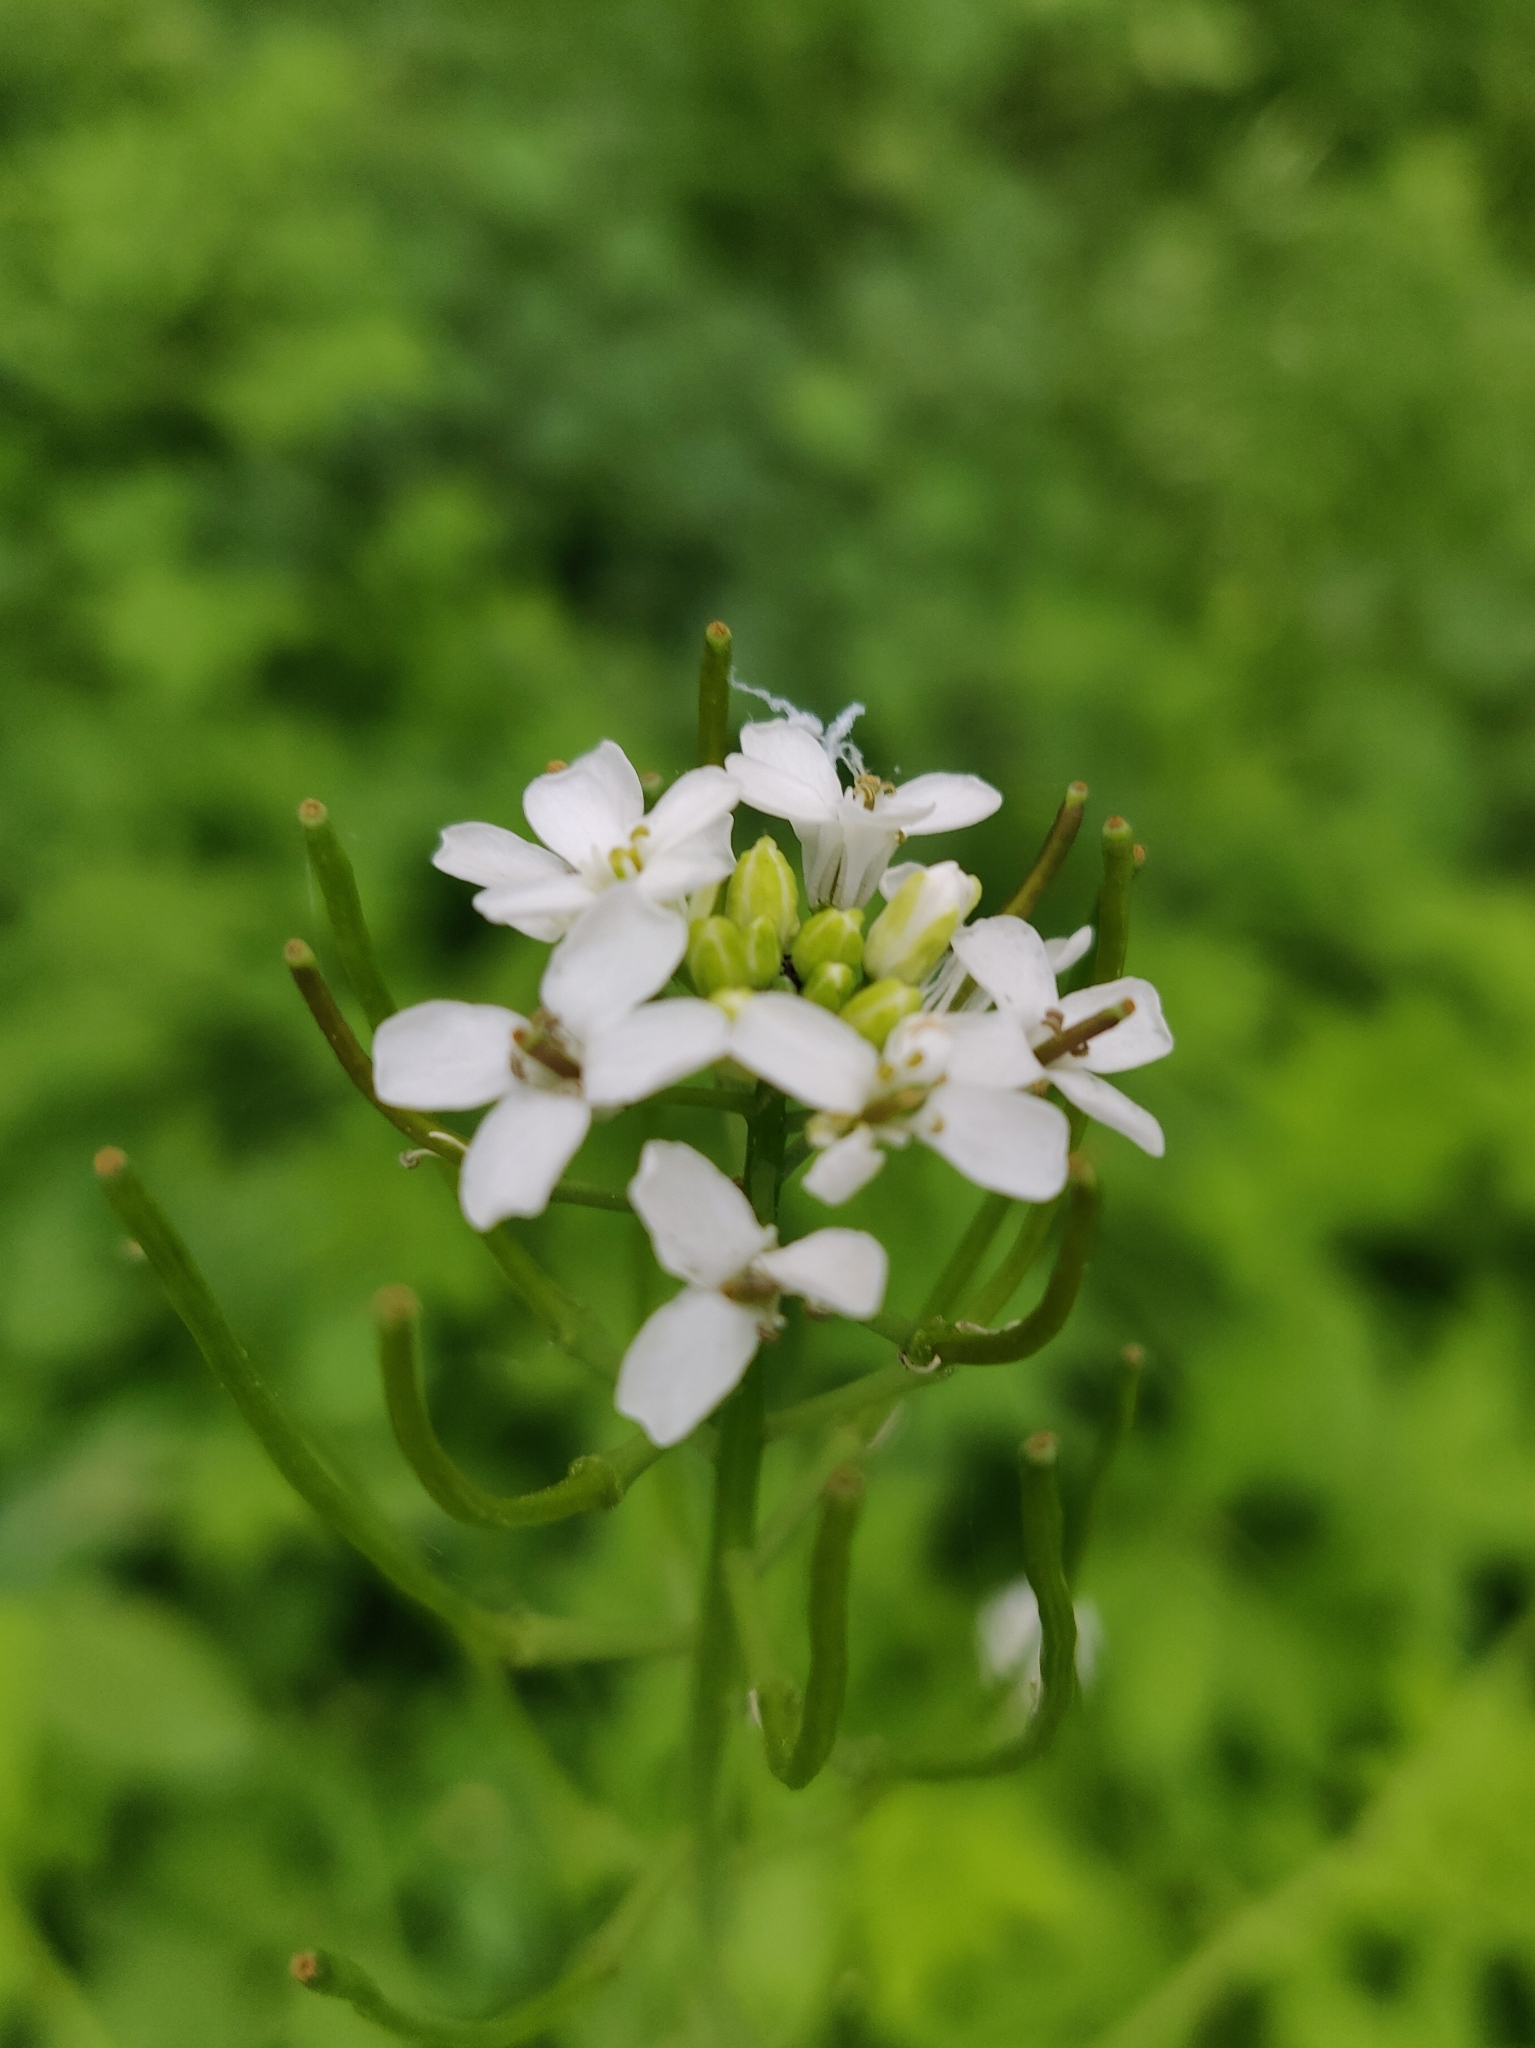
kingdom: Plantae
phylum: Tracheophyta
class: Magnoliopsida
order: Brassicales
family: Brassicaceae
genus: Alliaria
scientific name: Alliaria petiolata
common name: Garlic mustard
